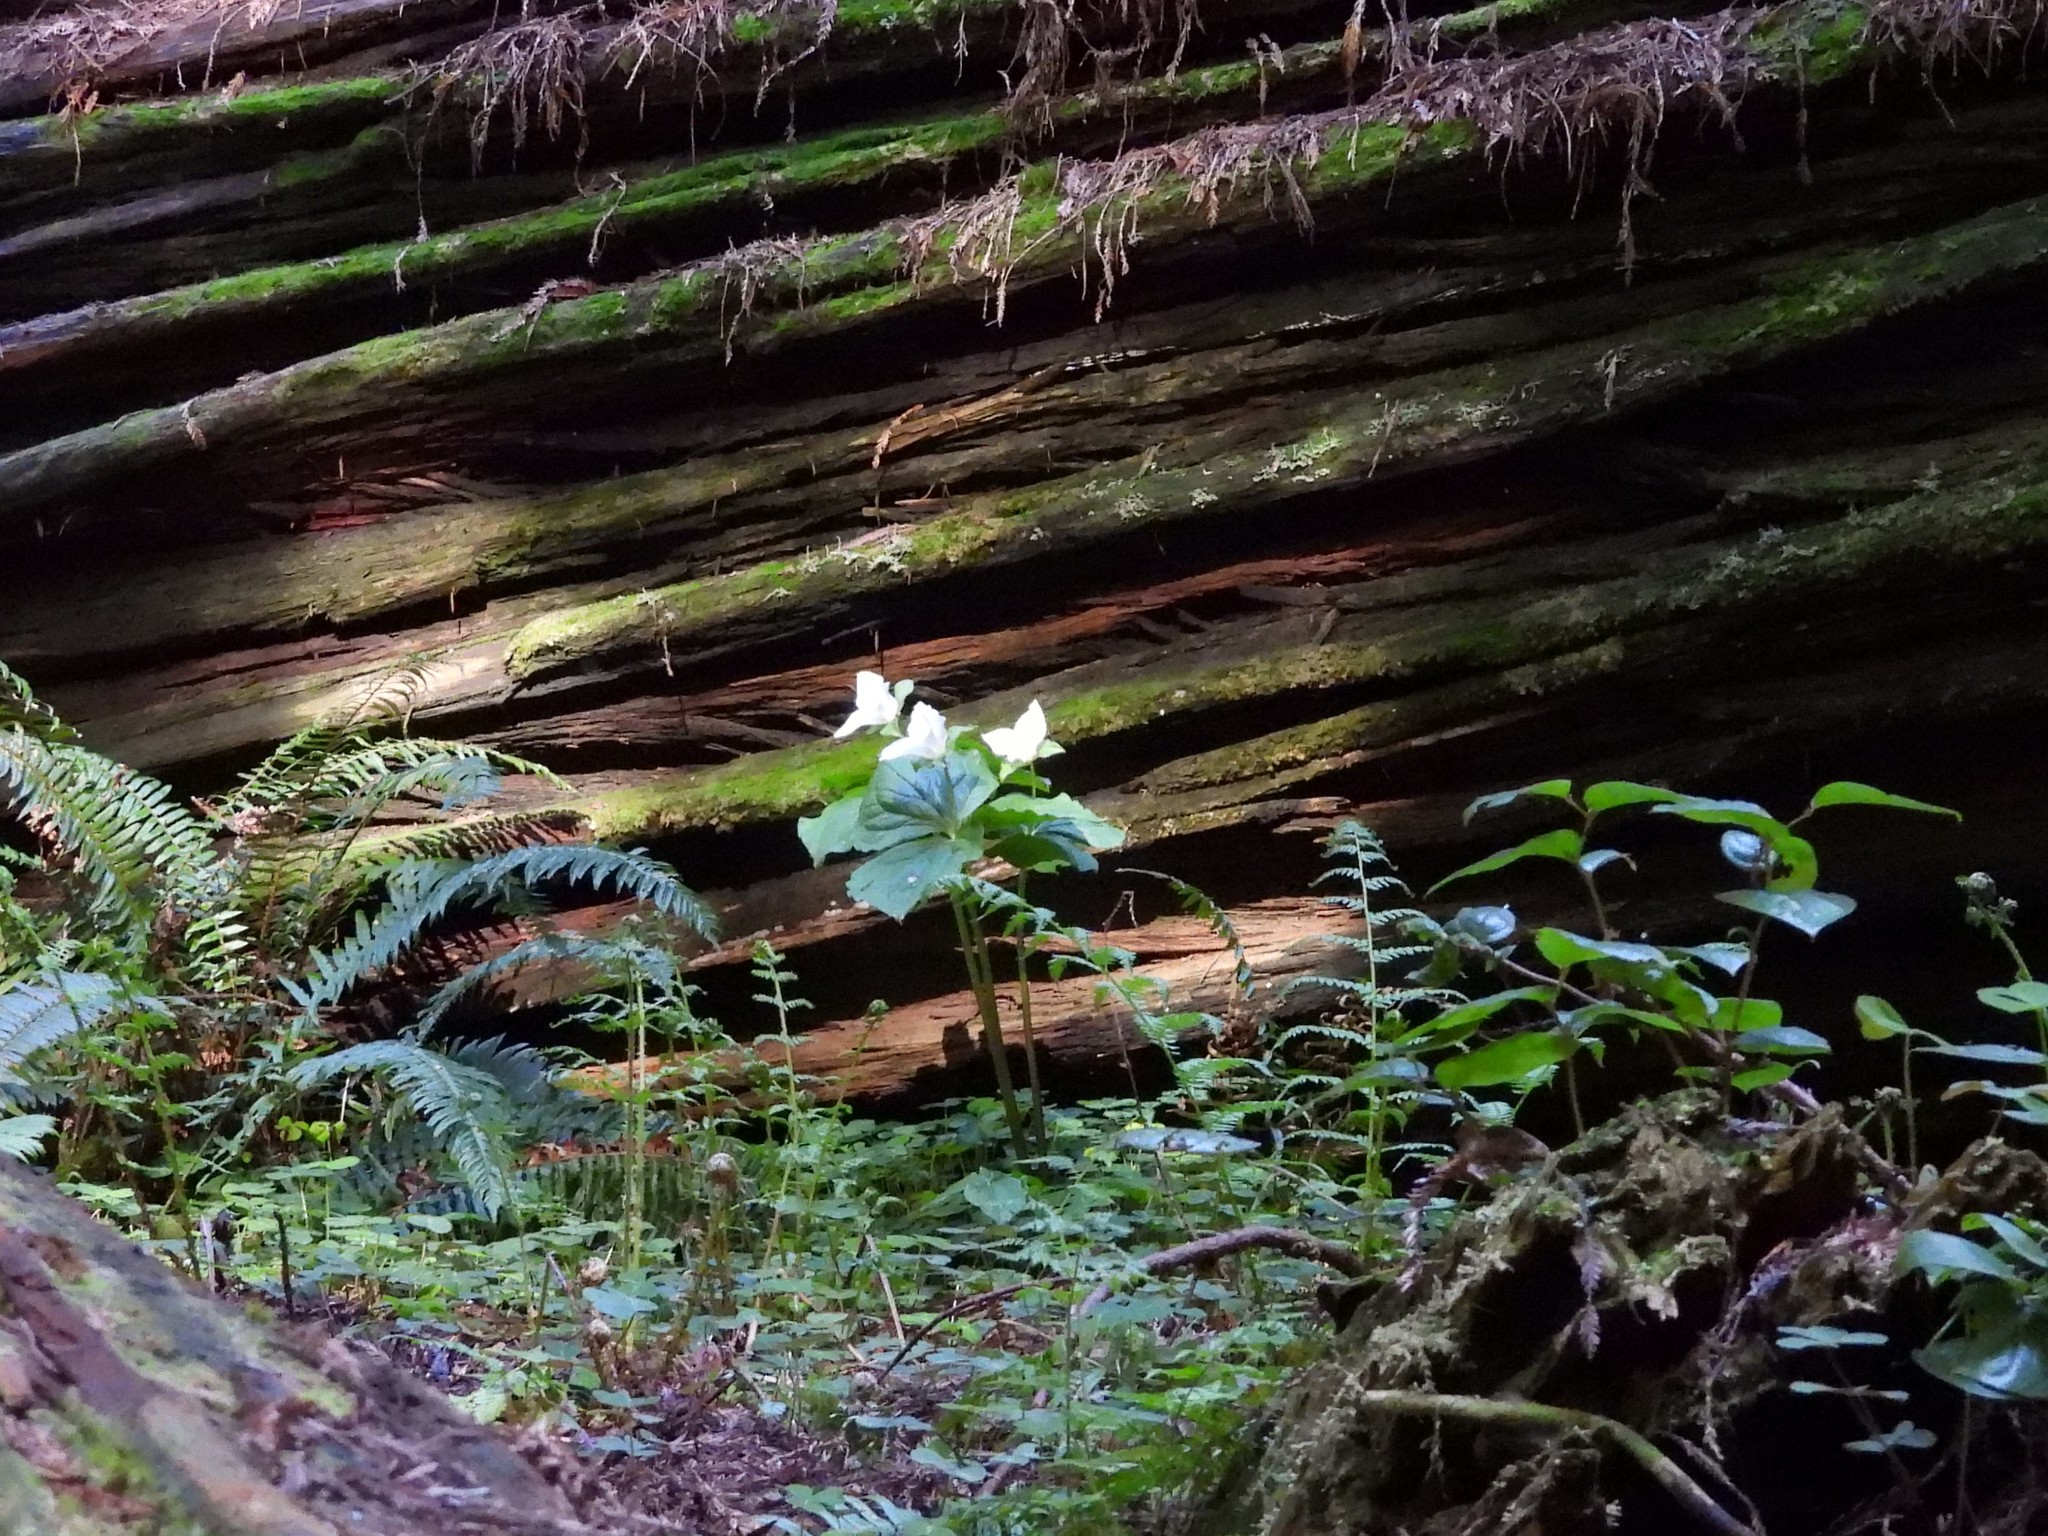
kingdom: Plantae
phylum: Tracheophyta
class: Liliopsida
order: Liliales
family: Melanthiaceae
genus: Trillium
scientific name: Trillium ovatum
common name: Pacific trillium
